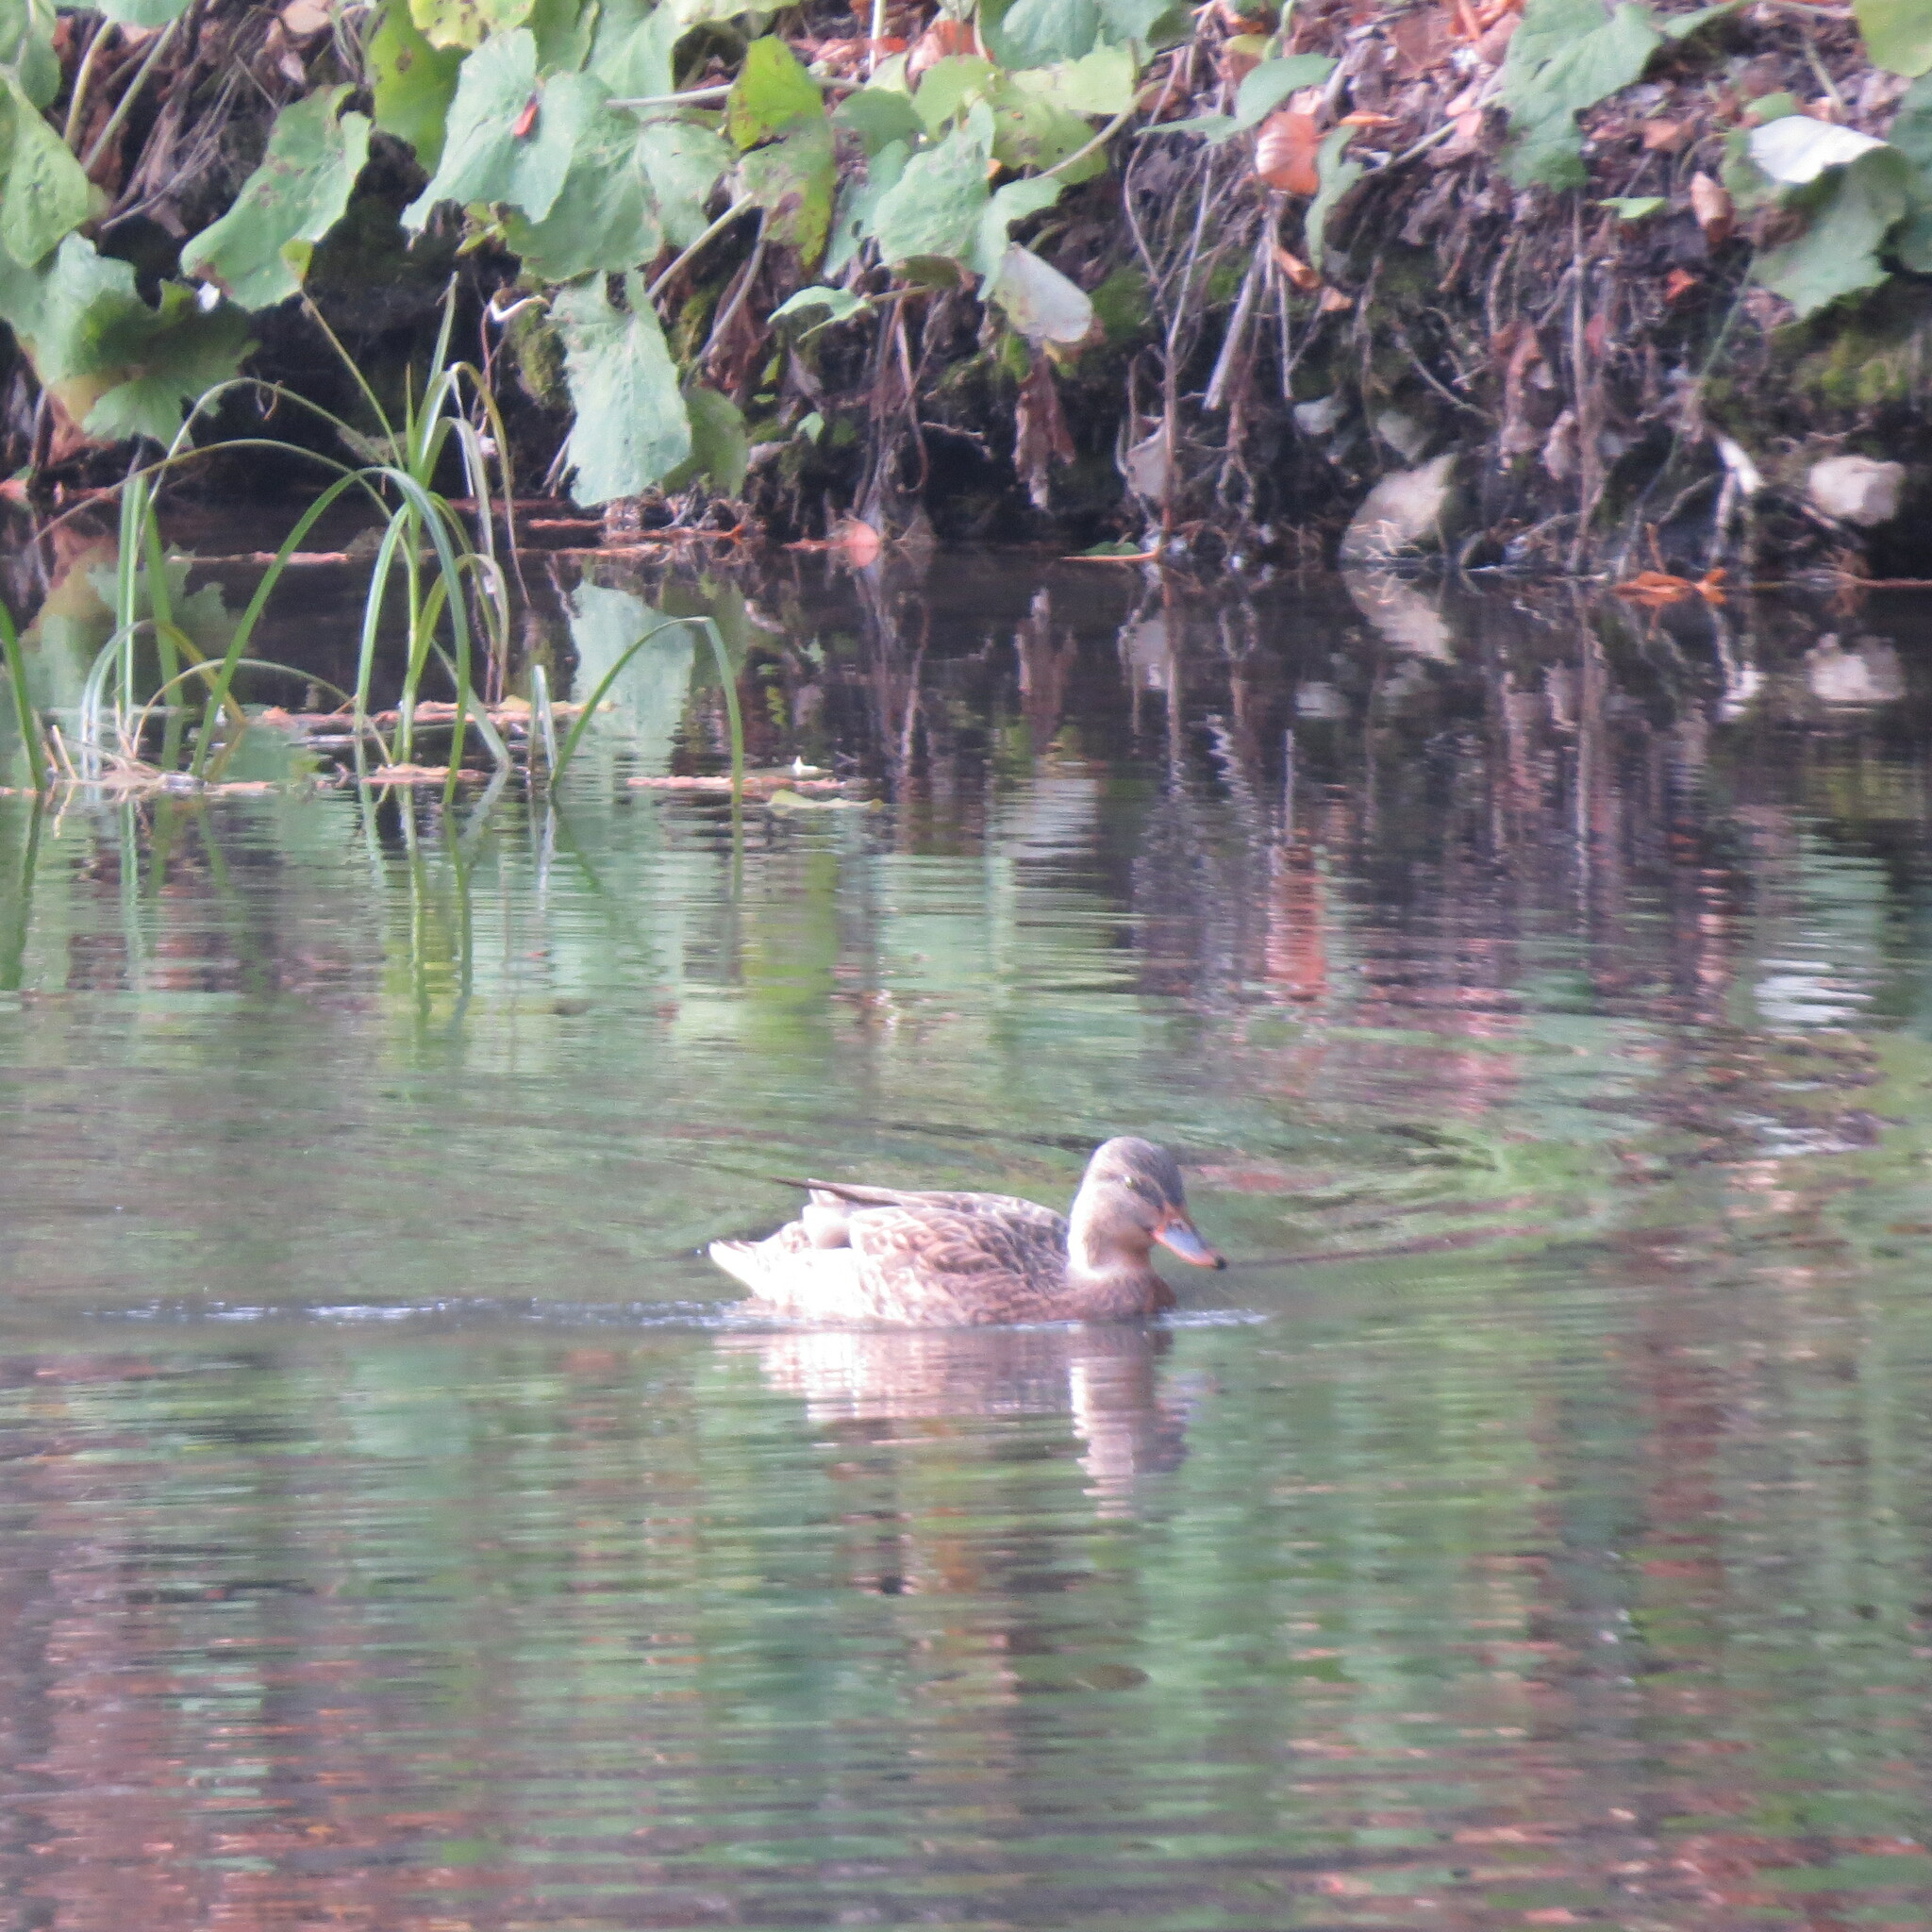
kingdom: Animalia
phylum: Chordata
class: Aves
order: Anseriformes
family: Anatidae
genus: Anas
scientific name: Anas platyrhynchos
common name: Mallard
